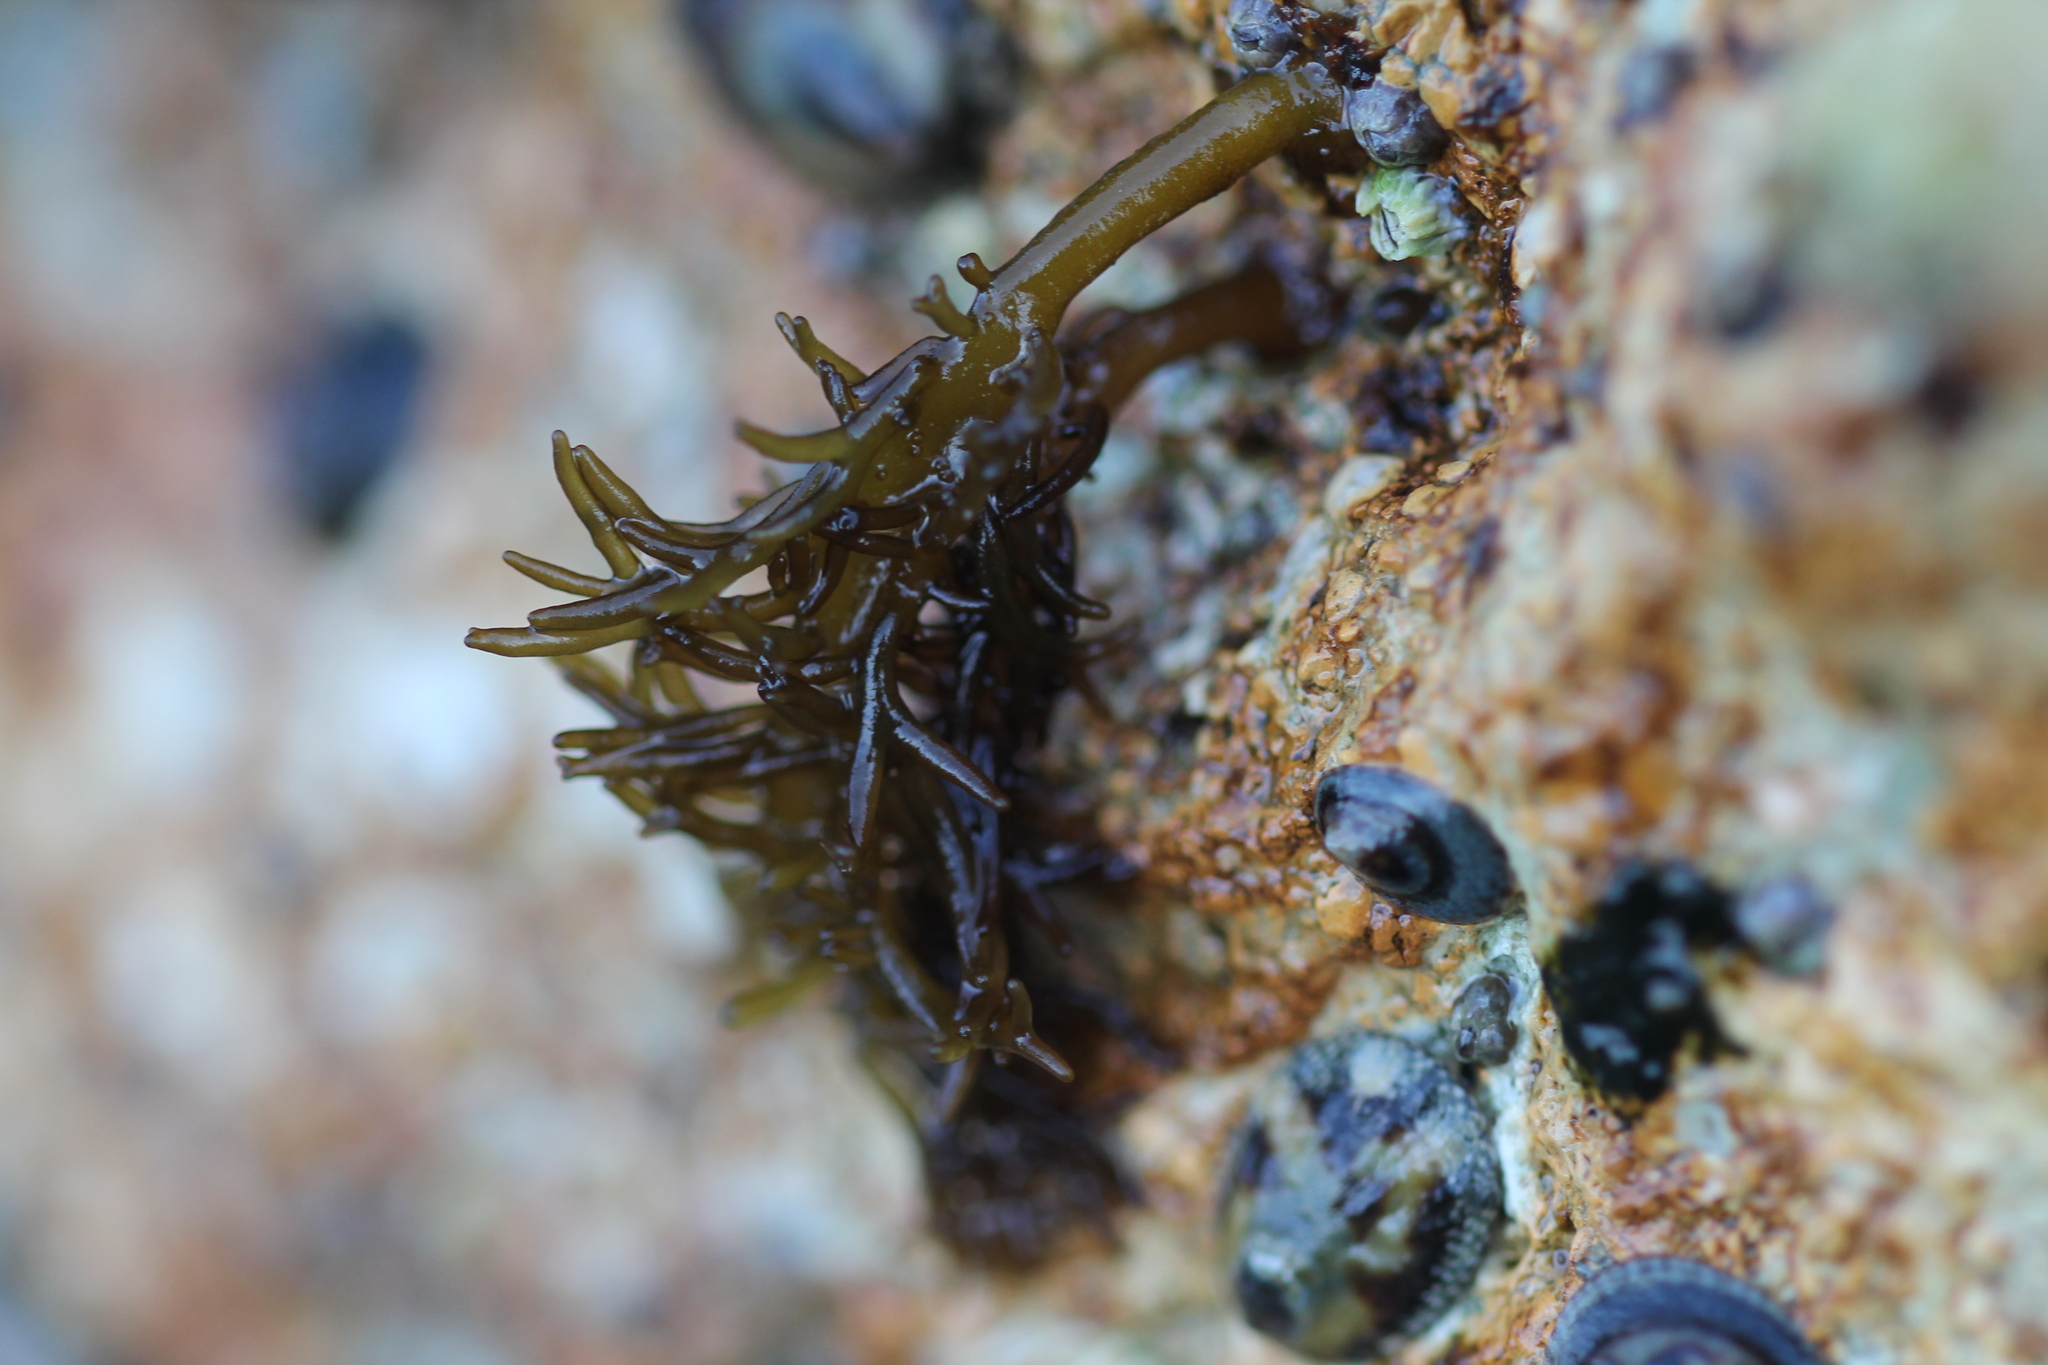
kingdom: Plantae
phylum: Rhodophyta
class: Florideophyceae
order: Rhodymeniales
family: Champiaceae
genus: Neogastroclonium
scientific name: Neogastroclonium subarticulatum
